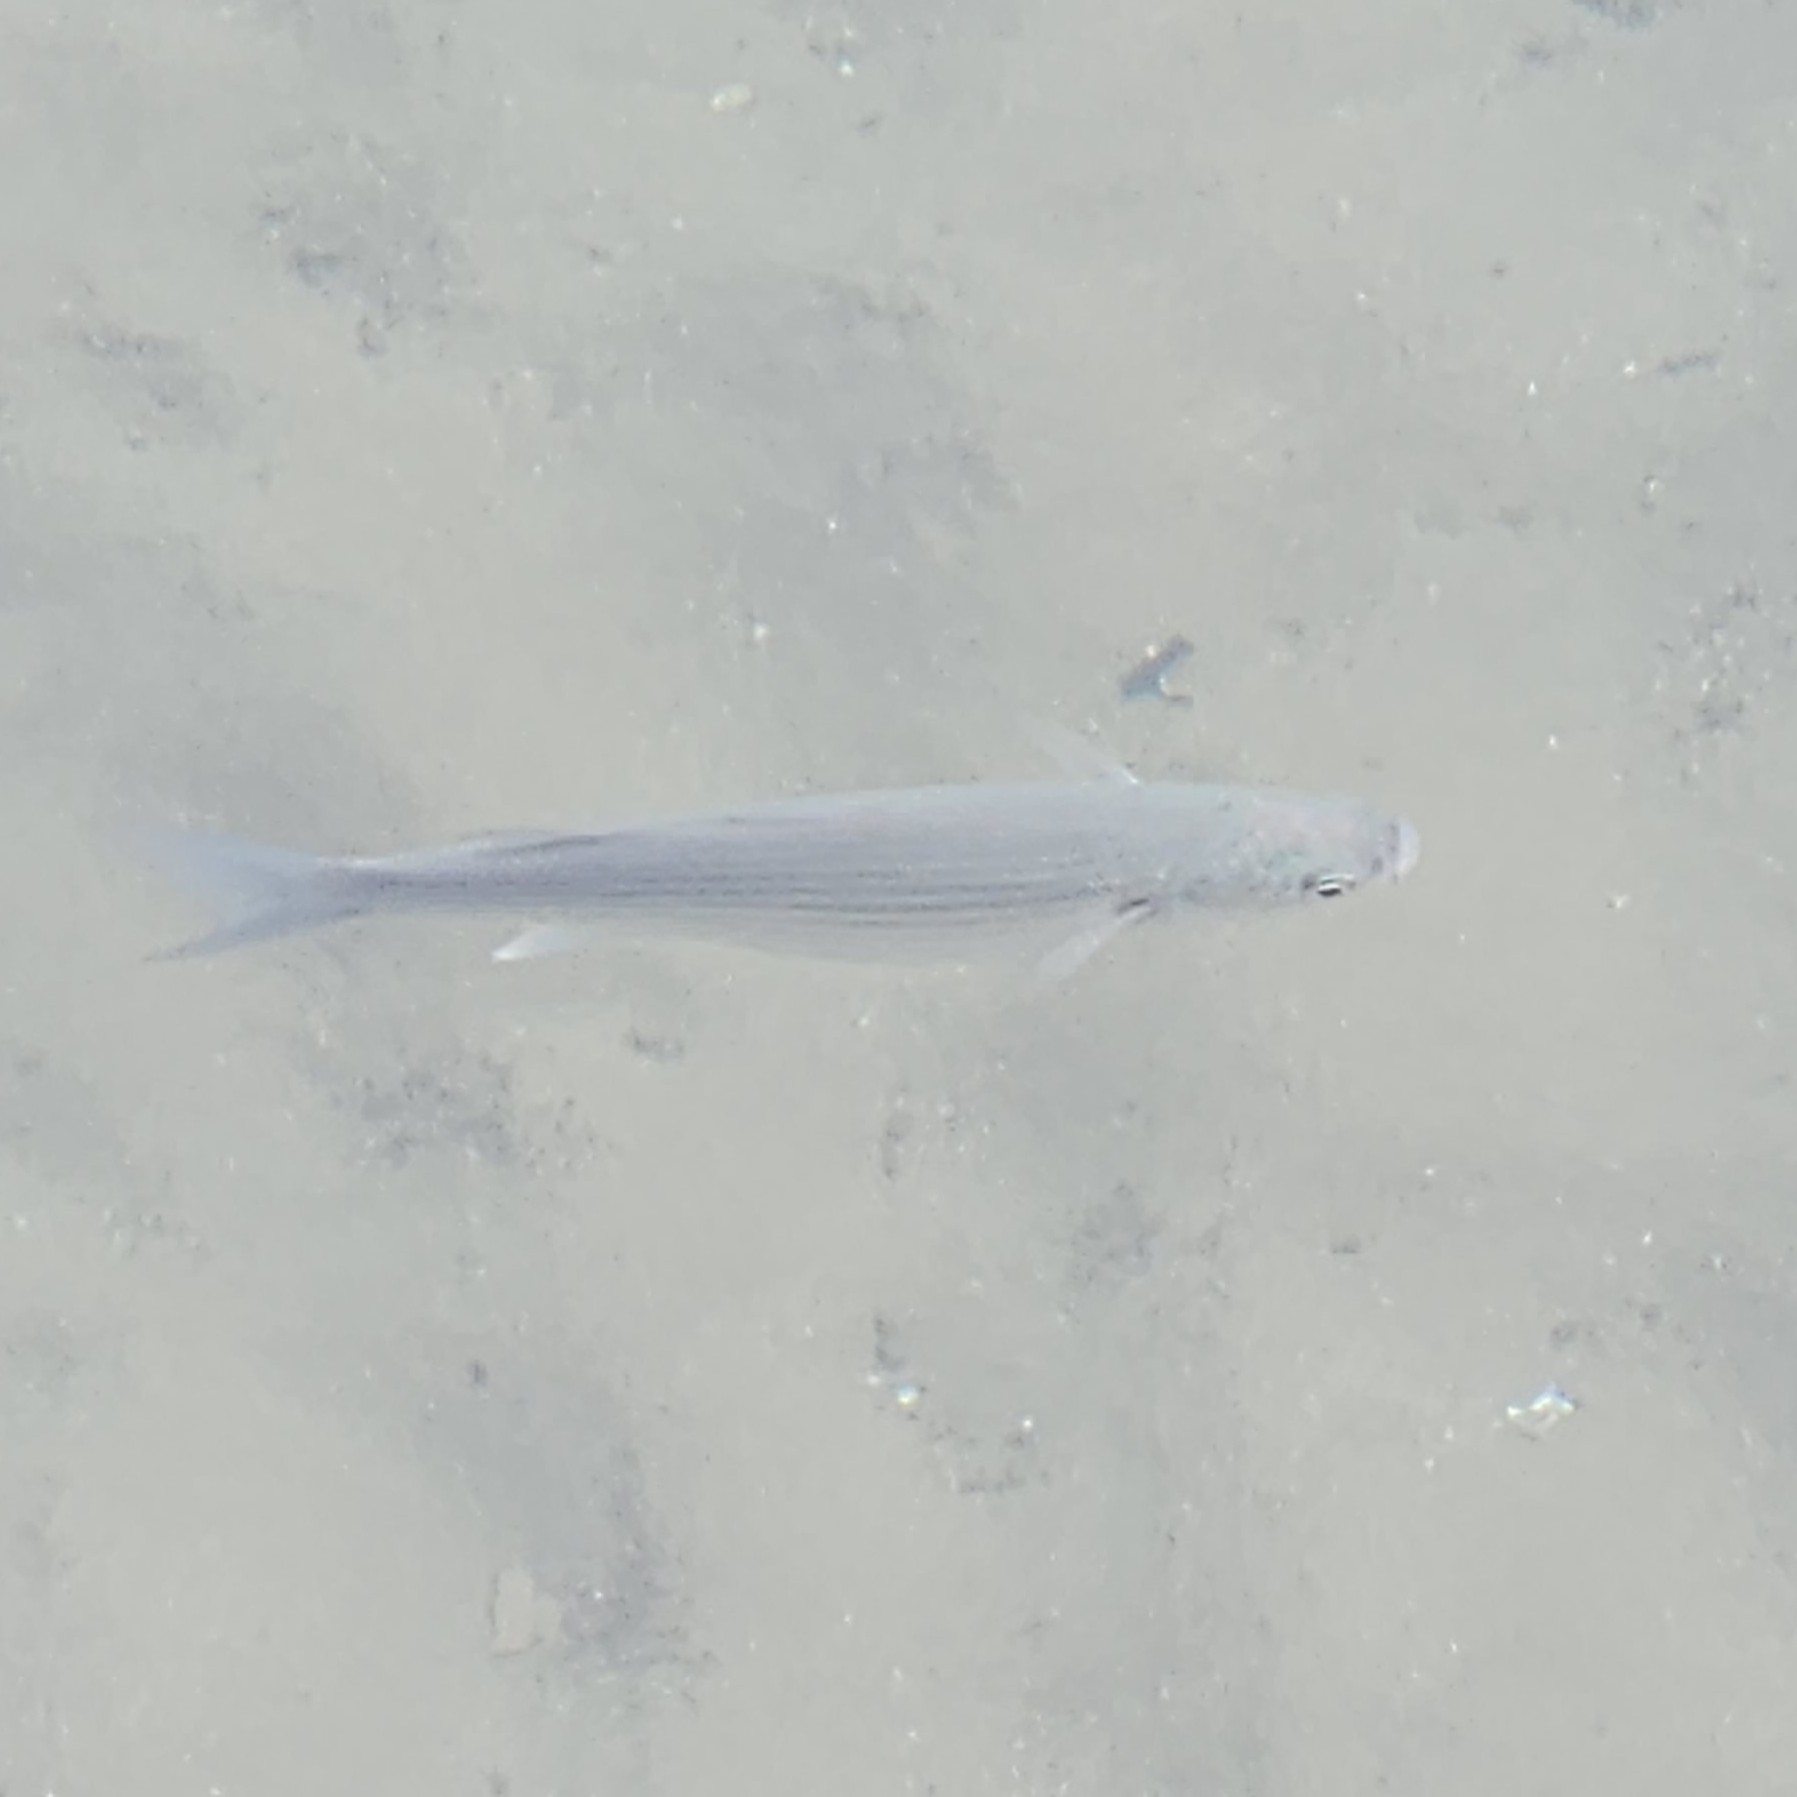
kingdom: Animalia
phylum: Chordata
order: Mugiliformes
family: Mugilidae
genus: Chelon
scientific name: Chelon labrosus
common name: Thick-lipped mullet
